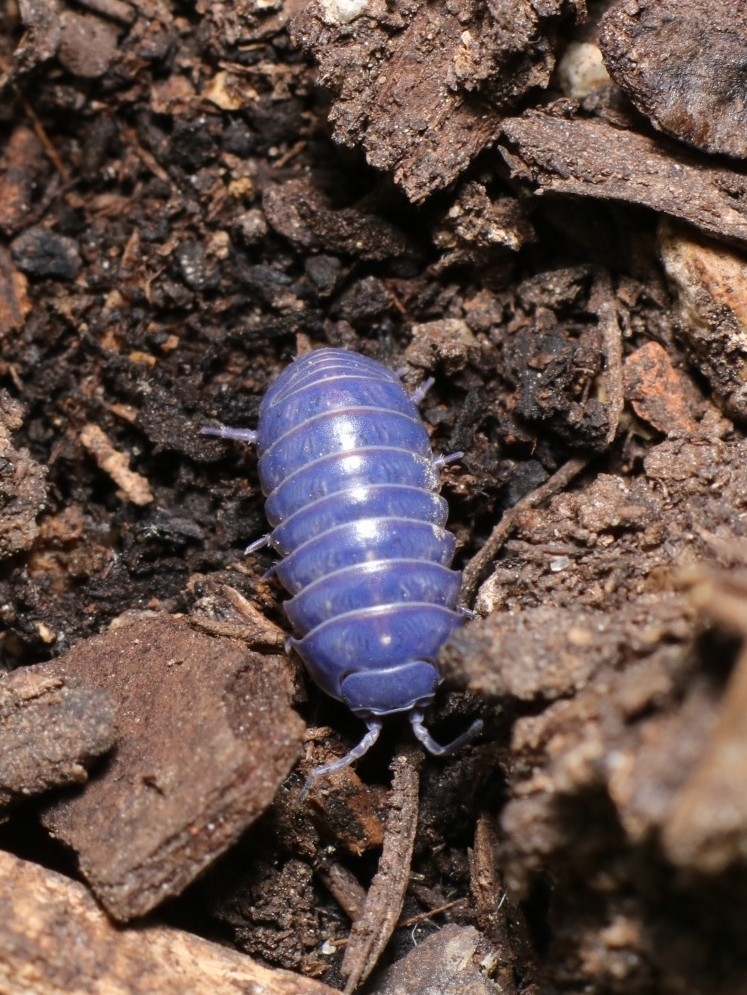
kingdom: Animalia
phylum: Arthropoda
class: Malacostraca
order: Isopoda
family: Armadillidiidae
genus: Armadillidium
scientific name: Armadillidium vulgare
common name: Common pill woodlouse
